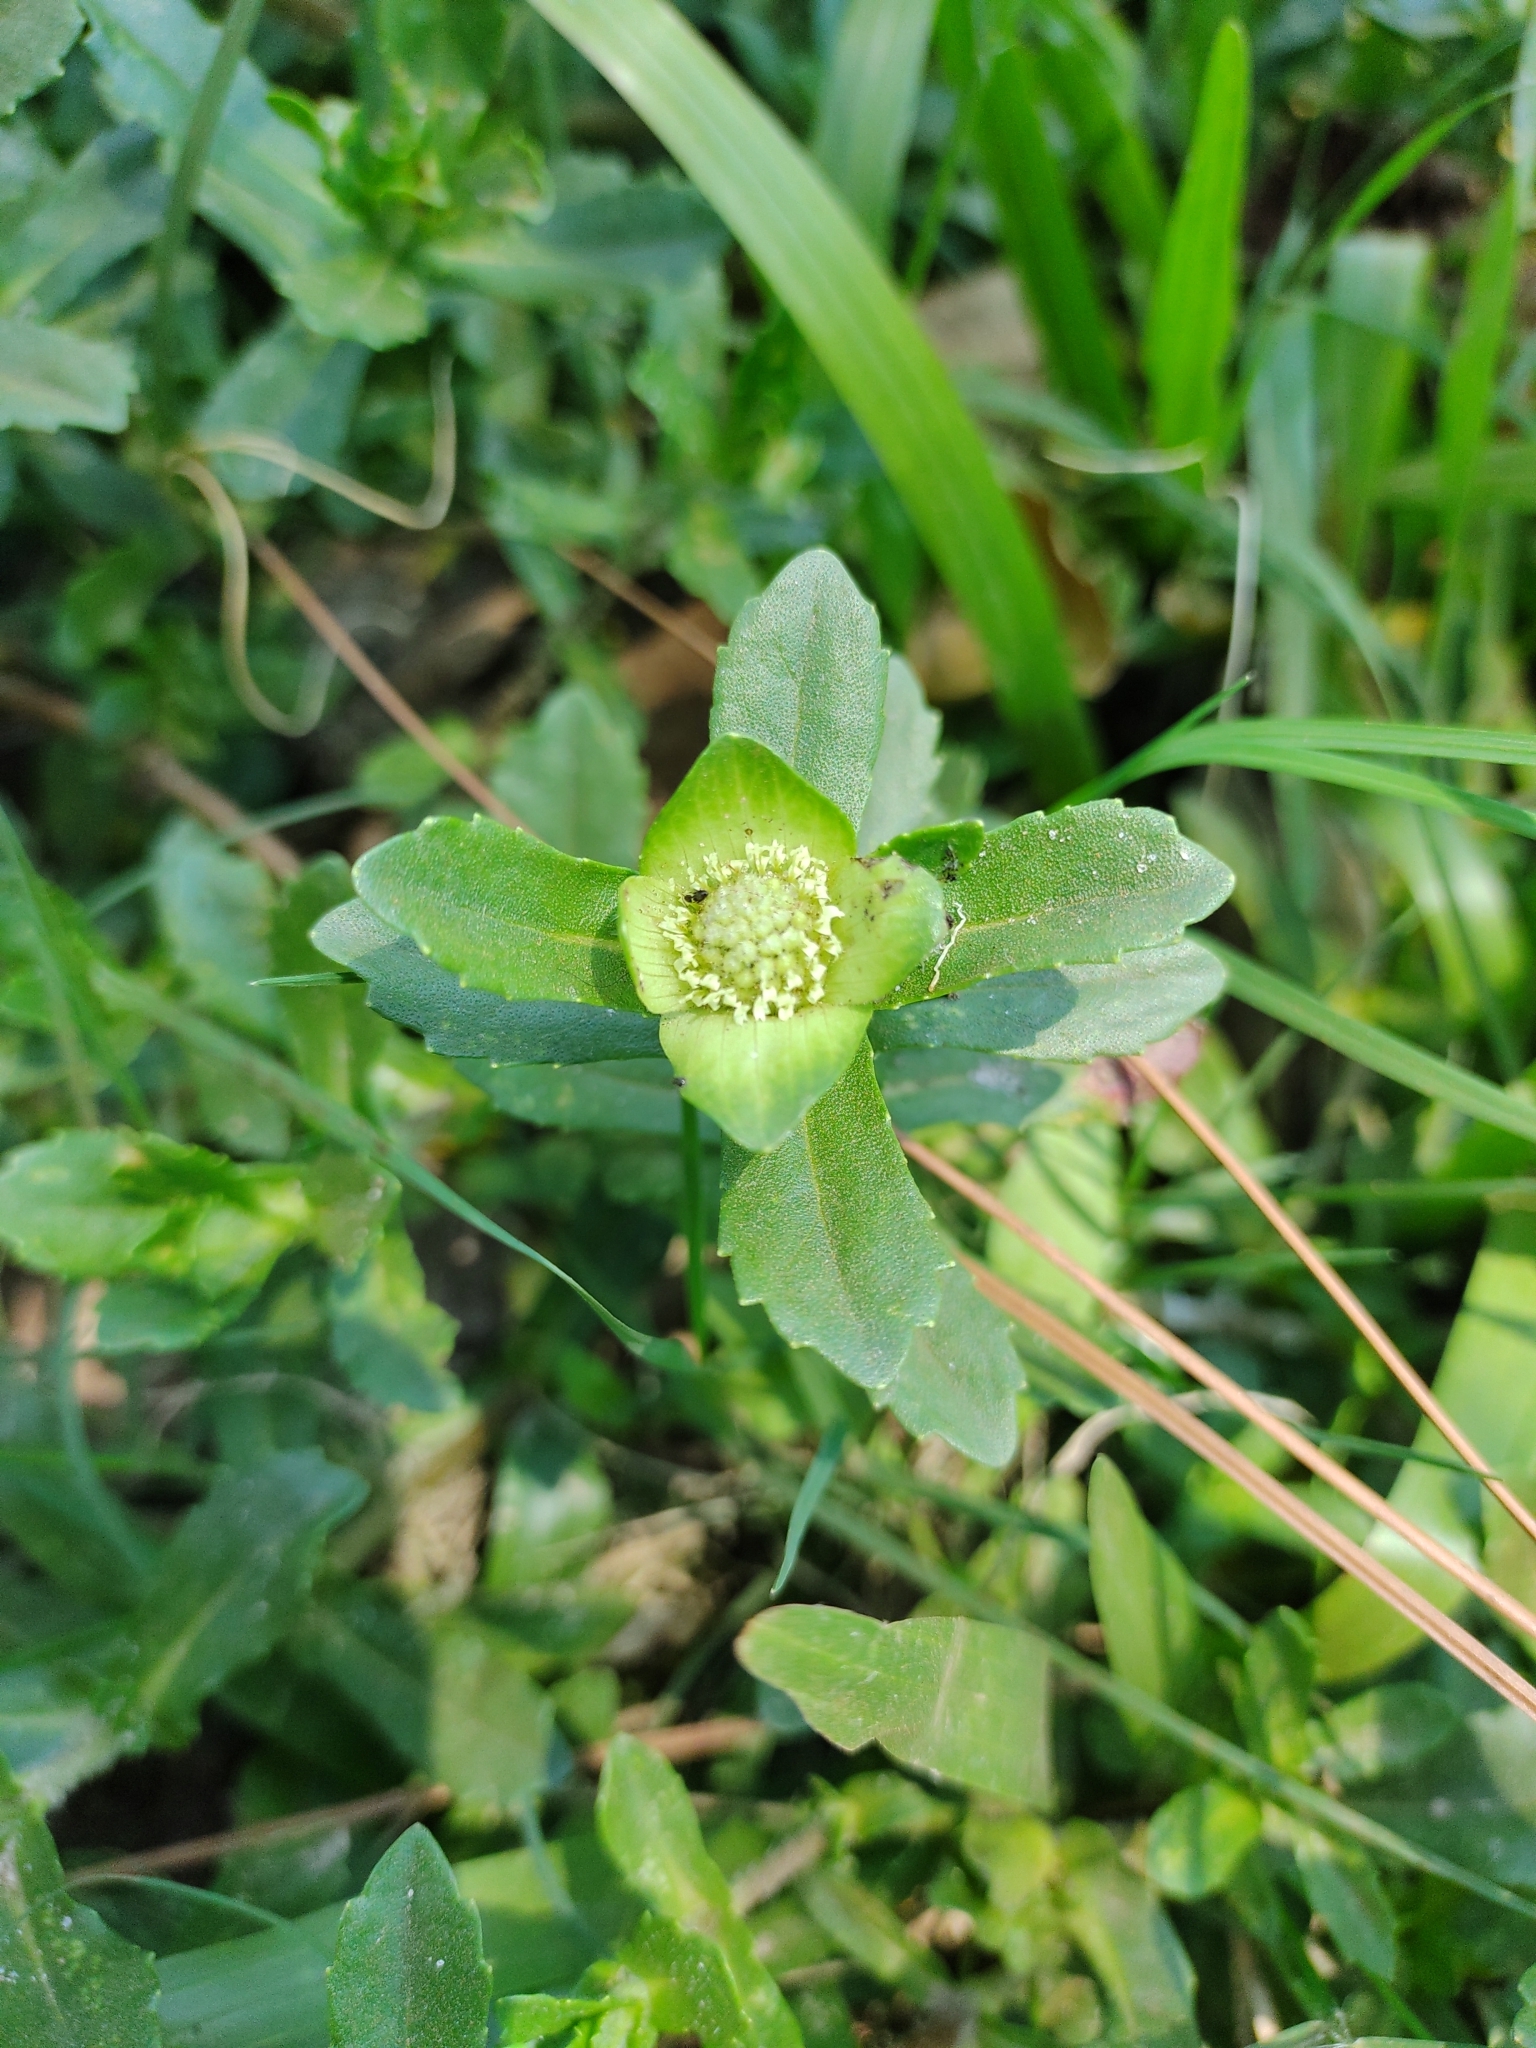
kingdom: Plantae
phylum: Tracheophyta
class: Magnoliopsida
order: Asterales
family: Asteraceae
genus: Enydra
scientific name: Enydra fluctuans
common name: Buffalo spinach
